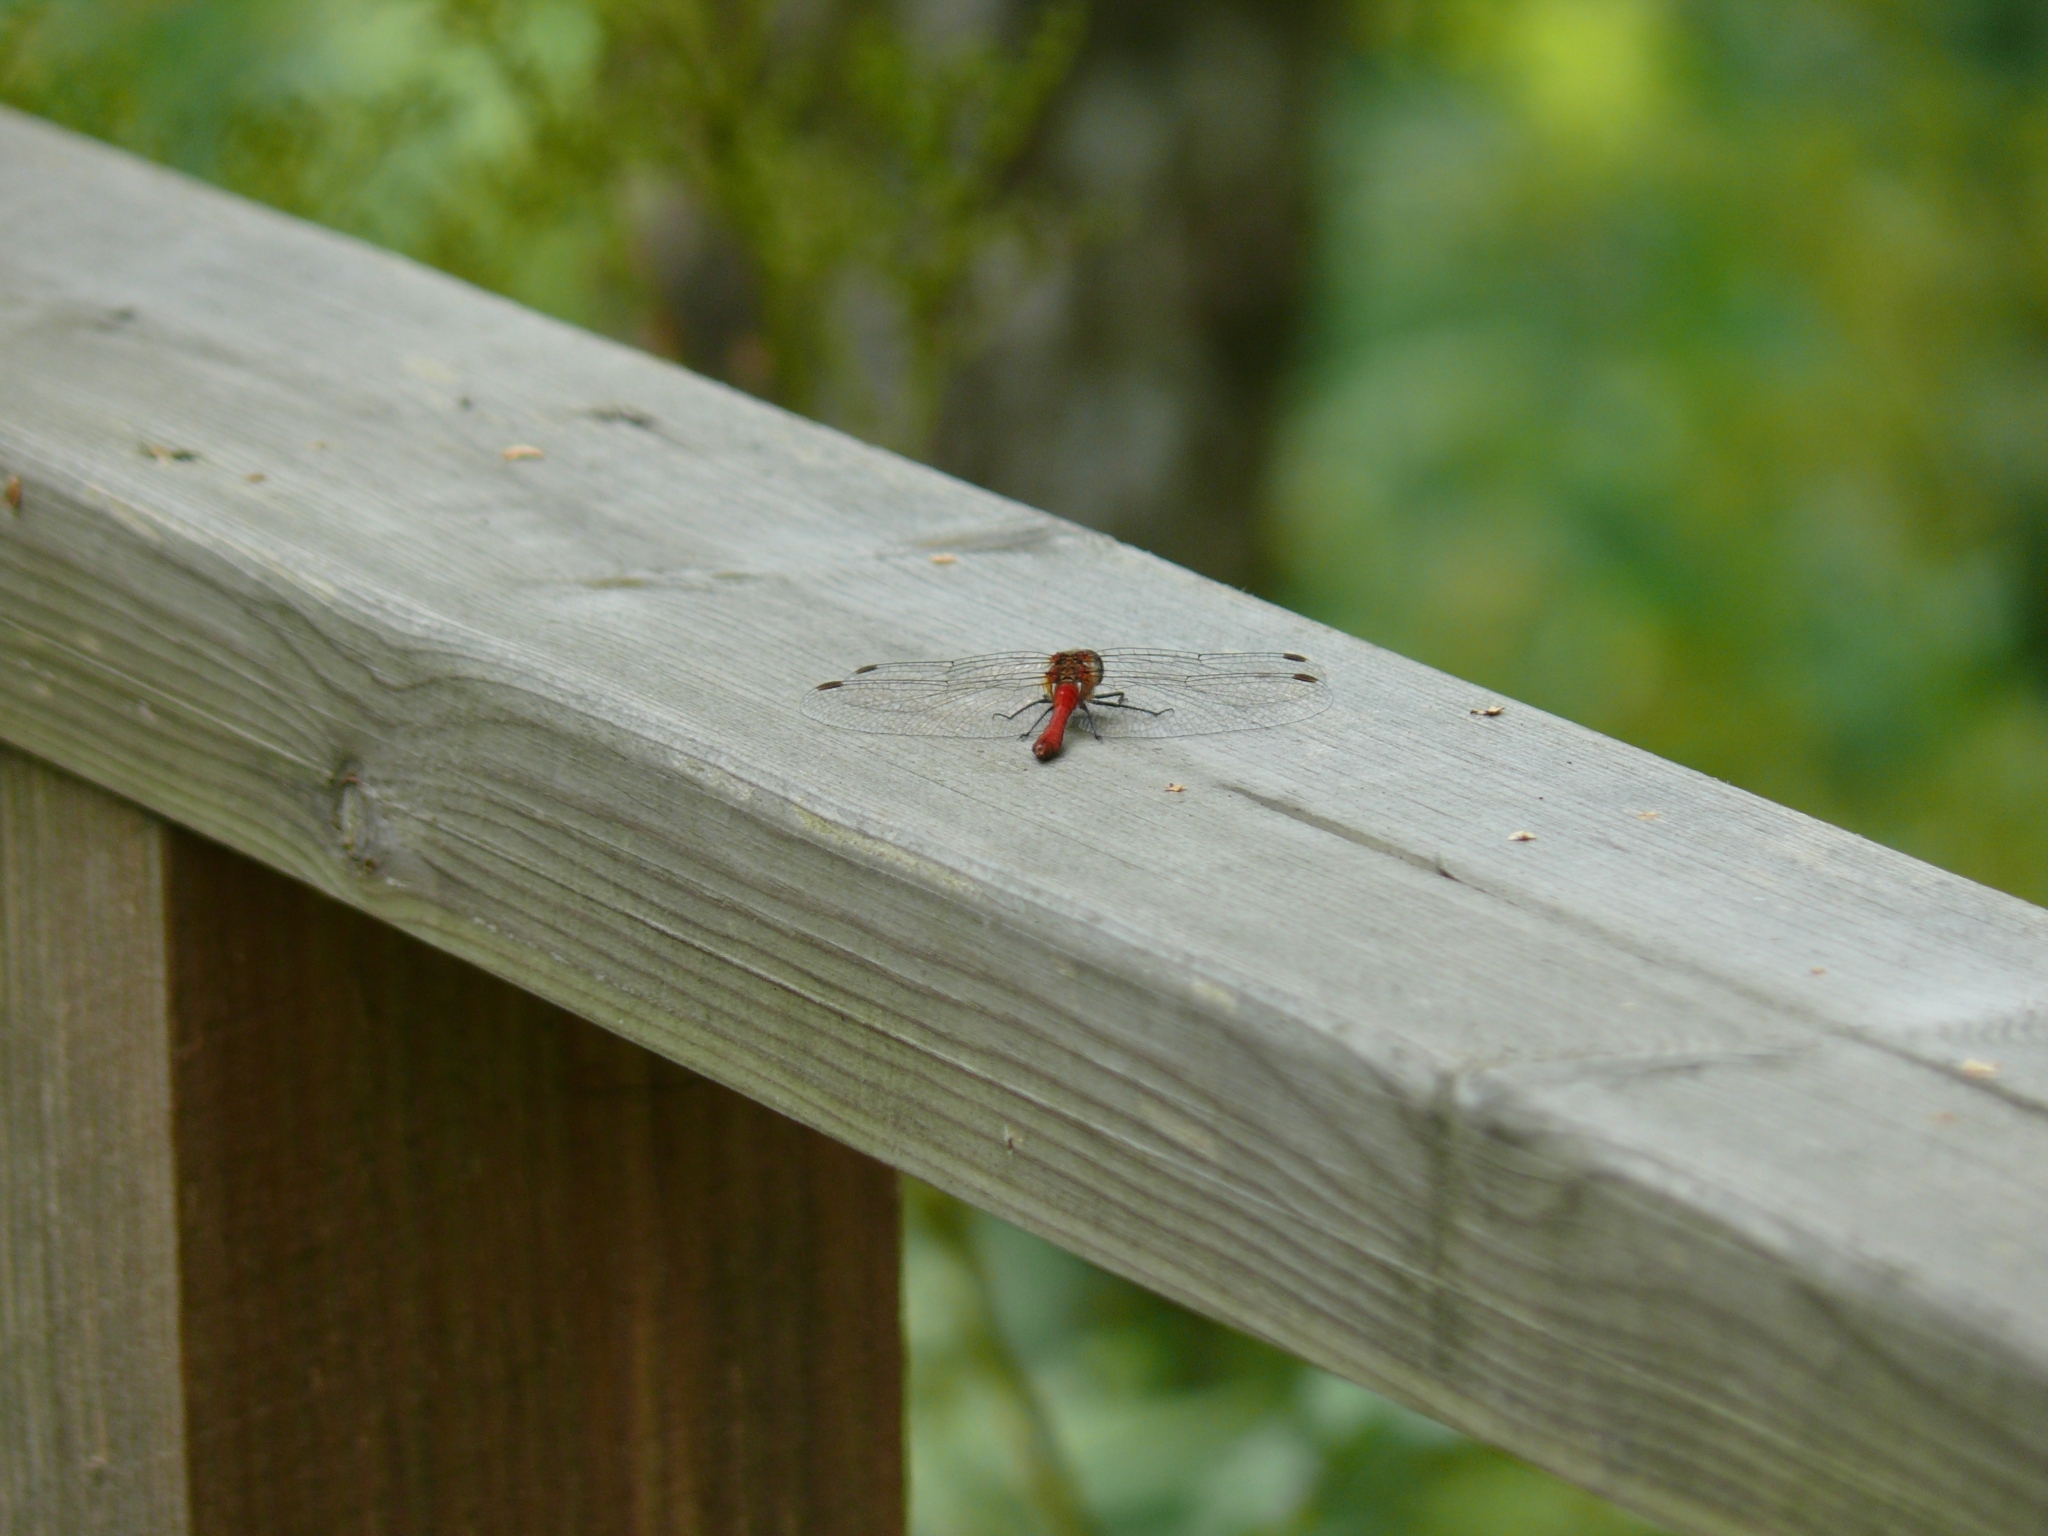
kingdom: Animalia
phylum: Arthropoda
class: Insecta
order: Odonata
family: Libellulidae
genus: Sympetrum
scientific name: Sympetrum sanguineum
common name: Ruddy darter
